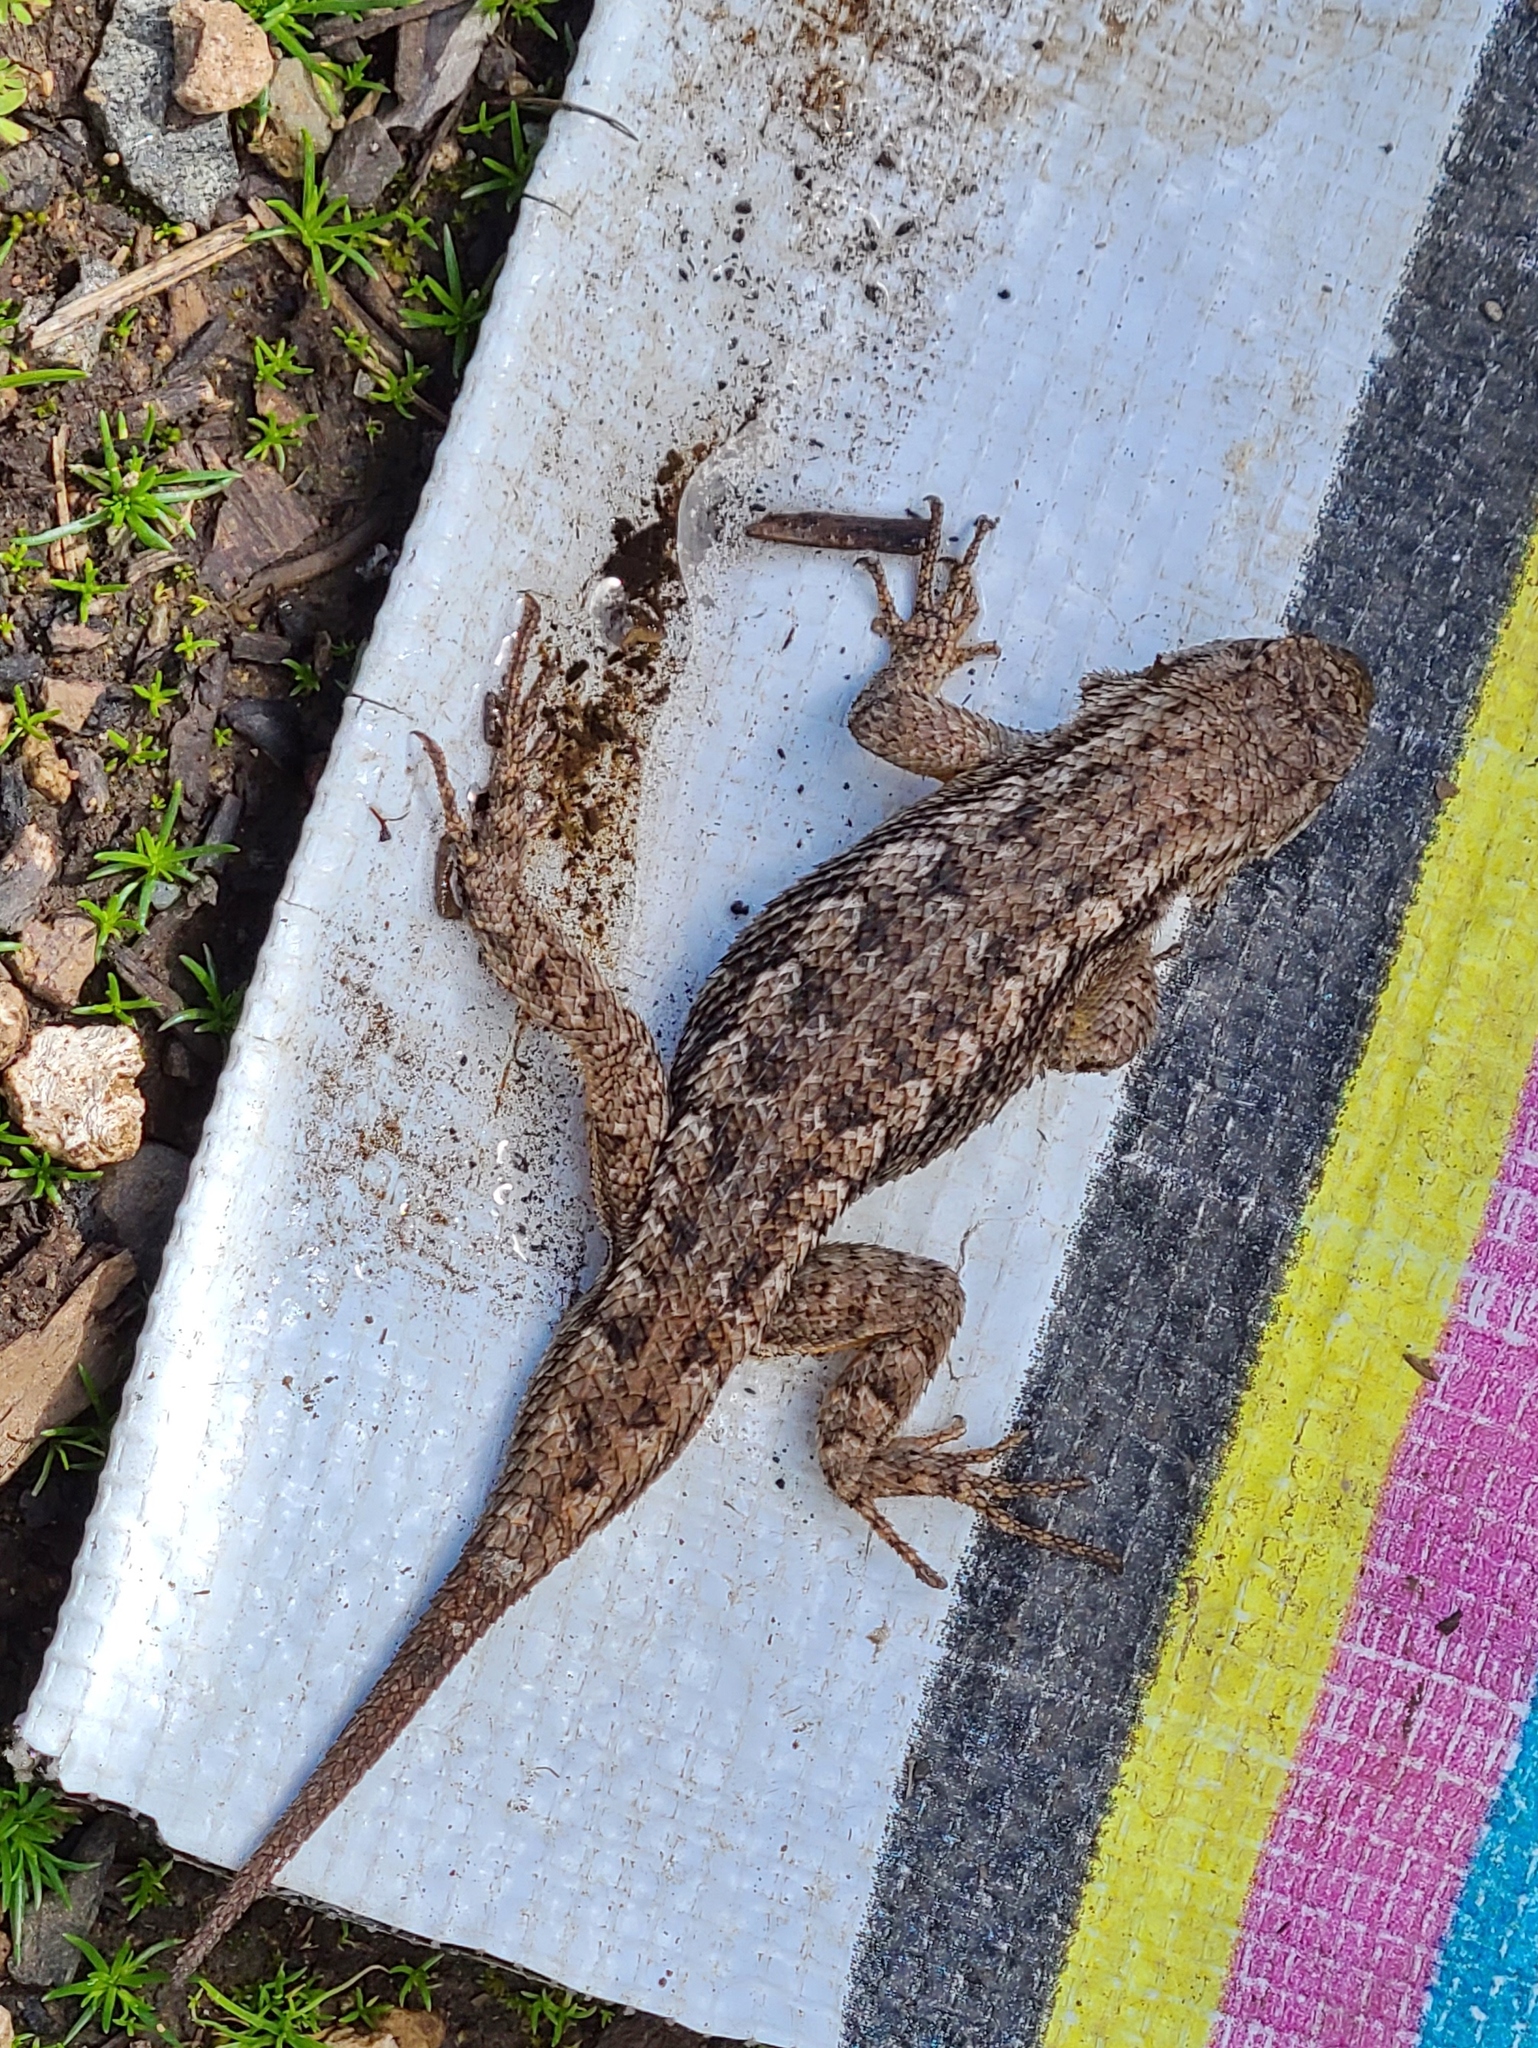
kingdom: Animalia
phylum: Chordata
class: Squamata
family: Phrynosomatidae
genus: Sceloporus
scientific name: Sceloporus occidentalis
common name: Western fence lizard
